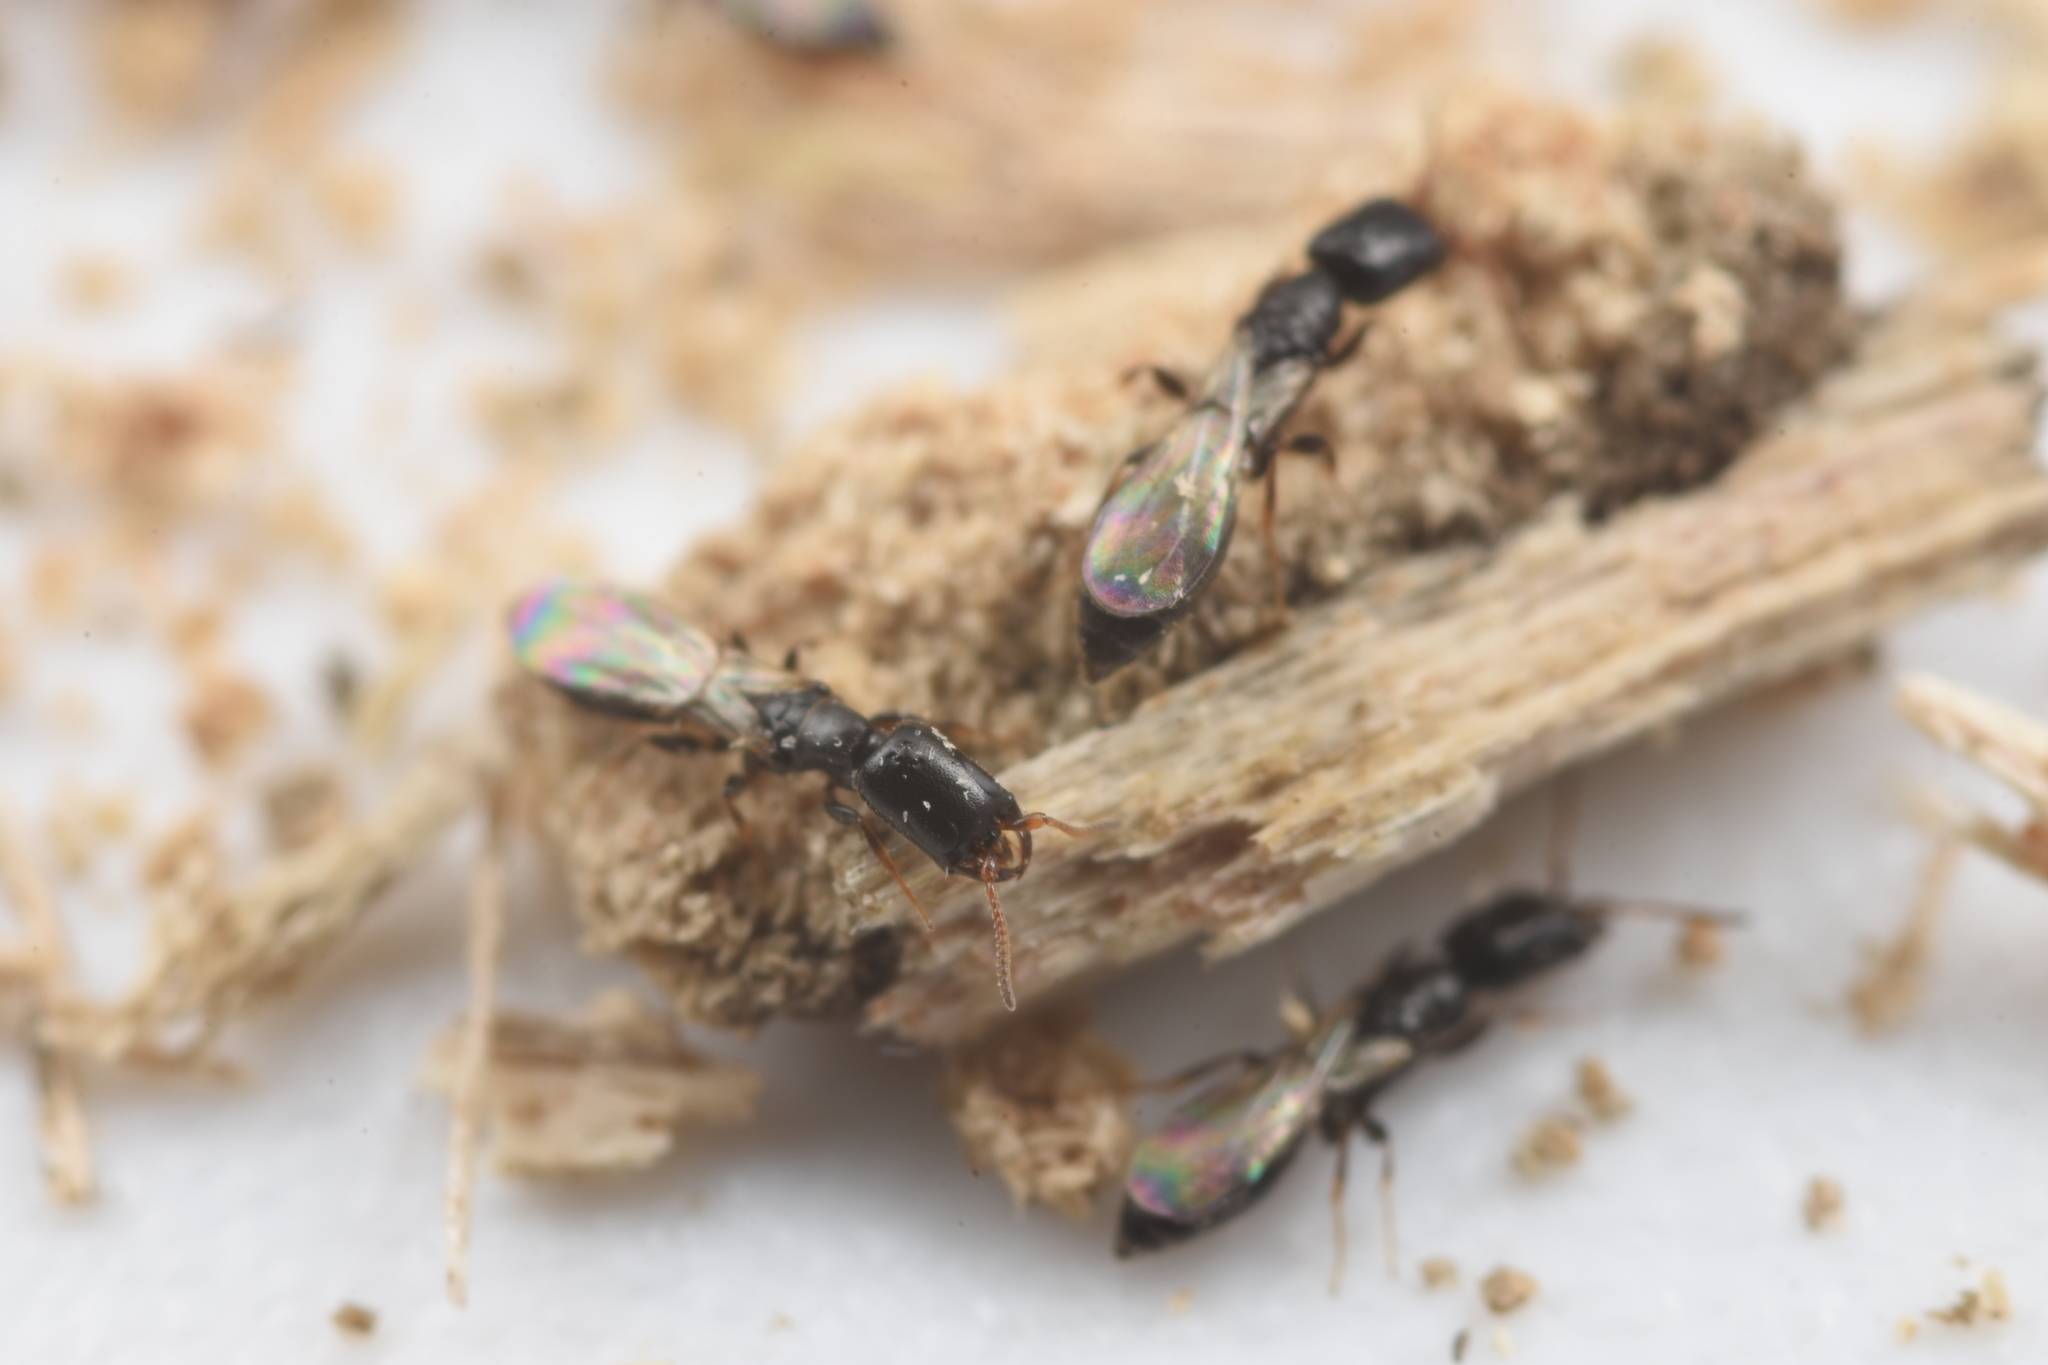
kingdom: Animalia
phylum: Arthropoda
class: Insecta
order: Hymenoptera
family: Bethylidae
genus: Allobethylus
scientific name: Allobethylus
